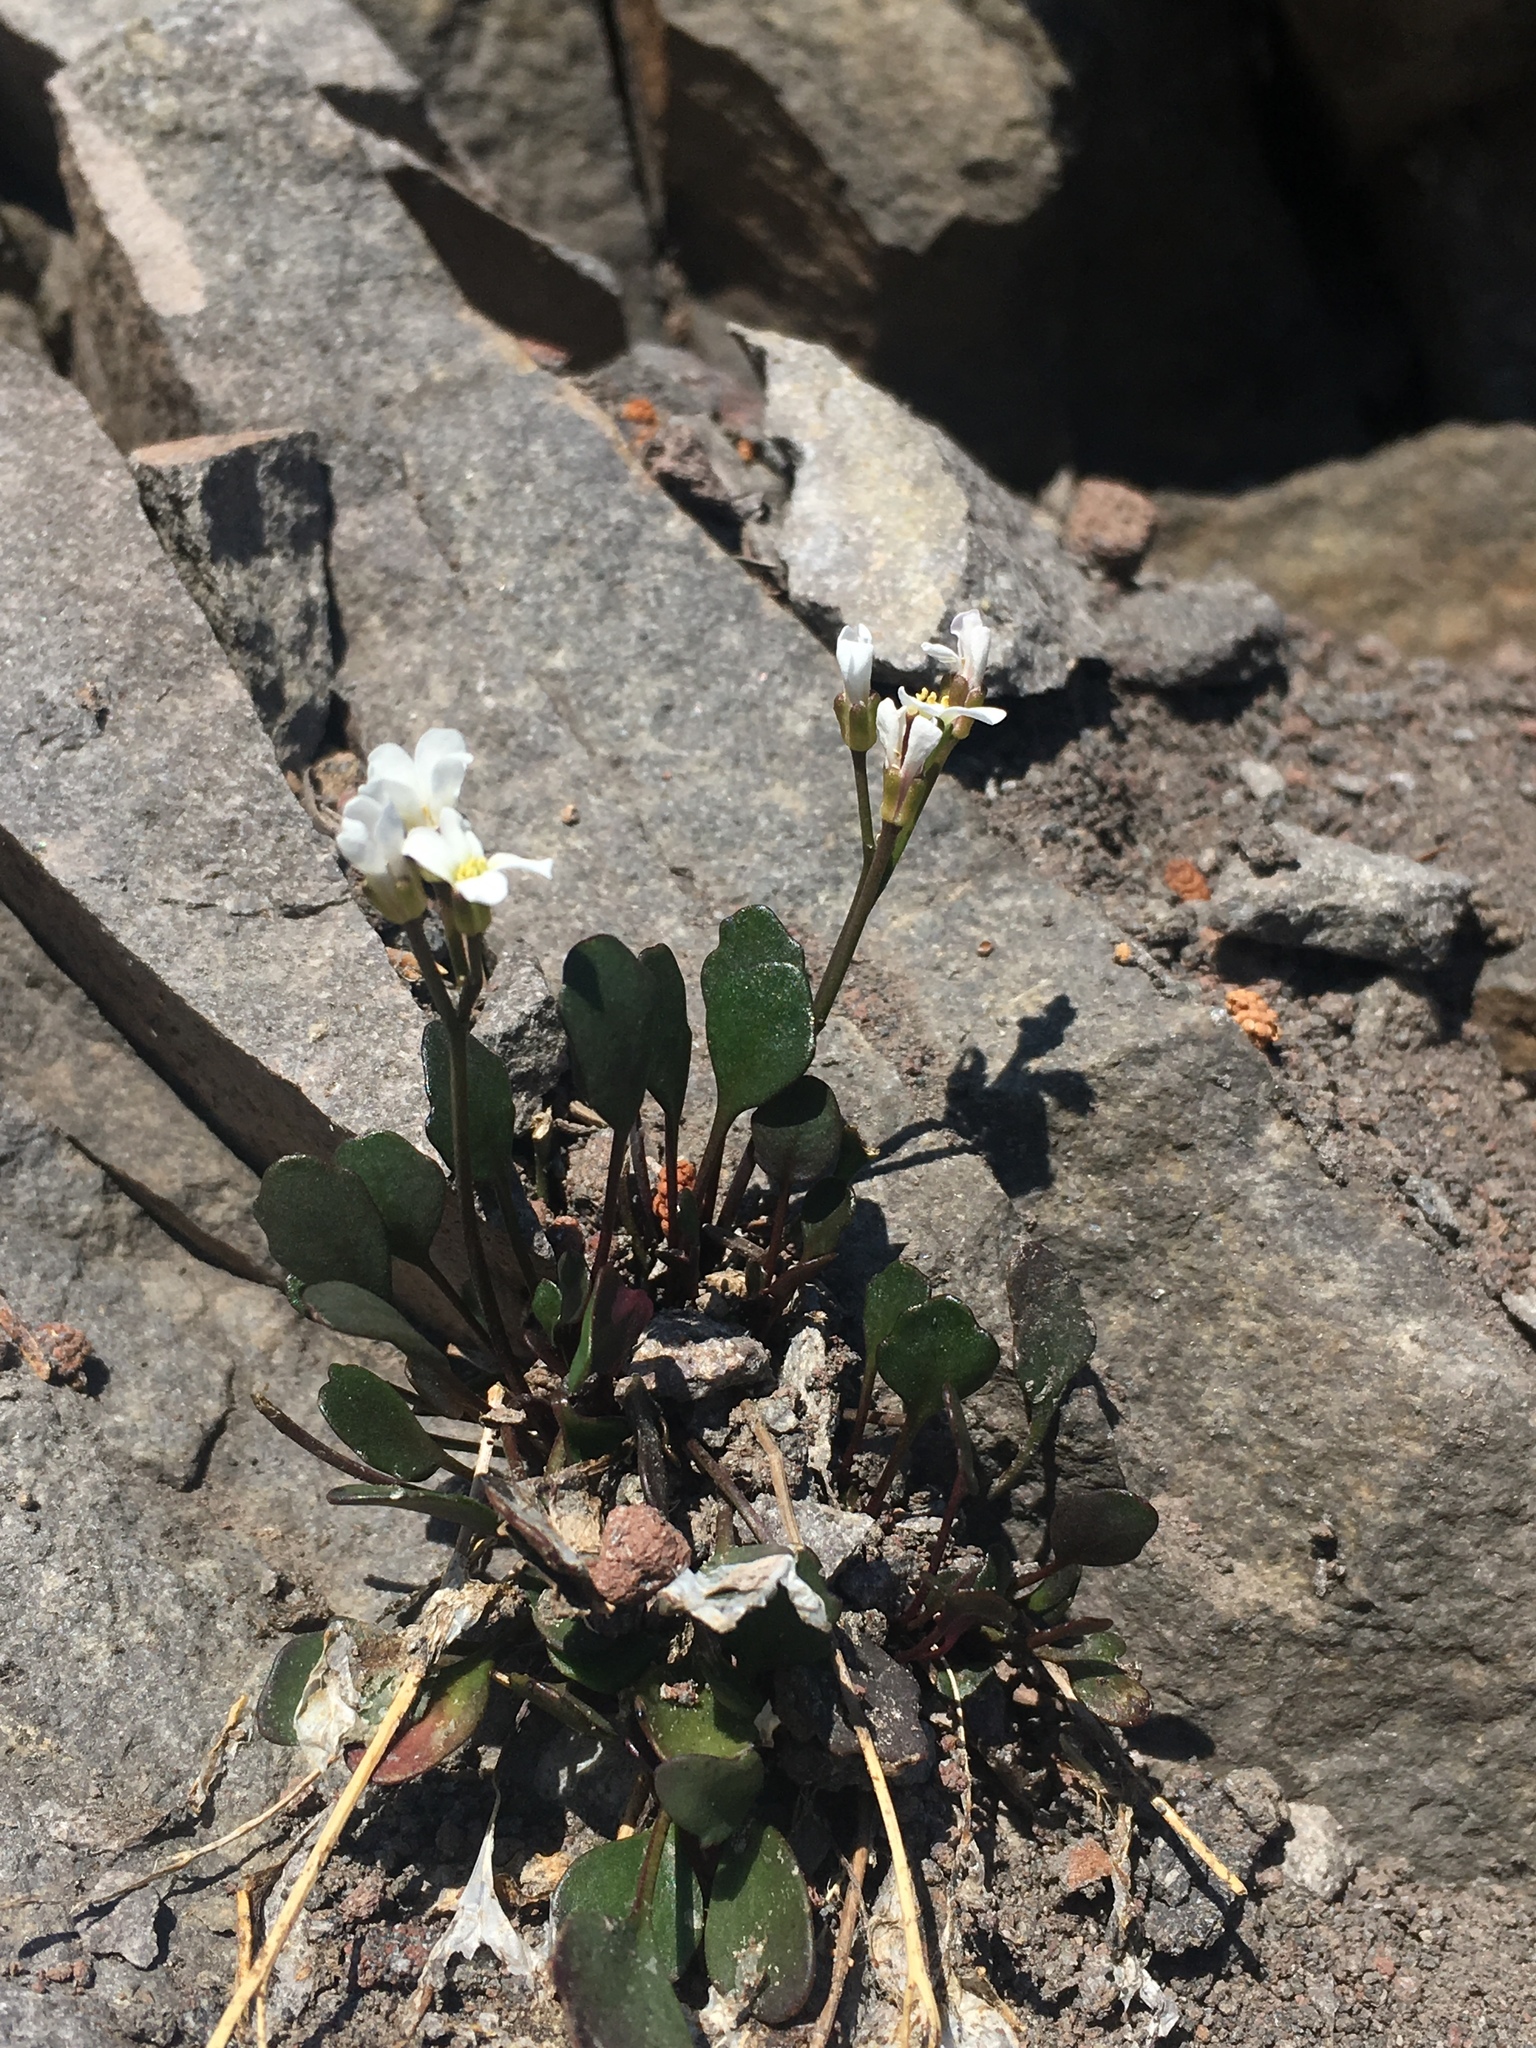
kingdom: Plantae
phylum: Tracheophyta
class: Magnoliopsida
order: Brassicales
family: Brassicaceae
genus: Cardamine
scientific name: Cardamine bellidifolia
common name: Alpine bittercress
